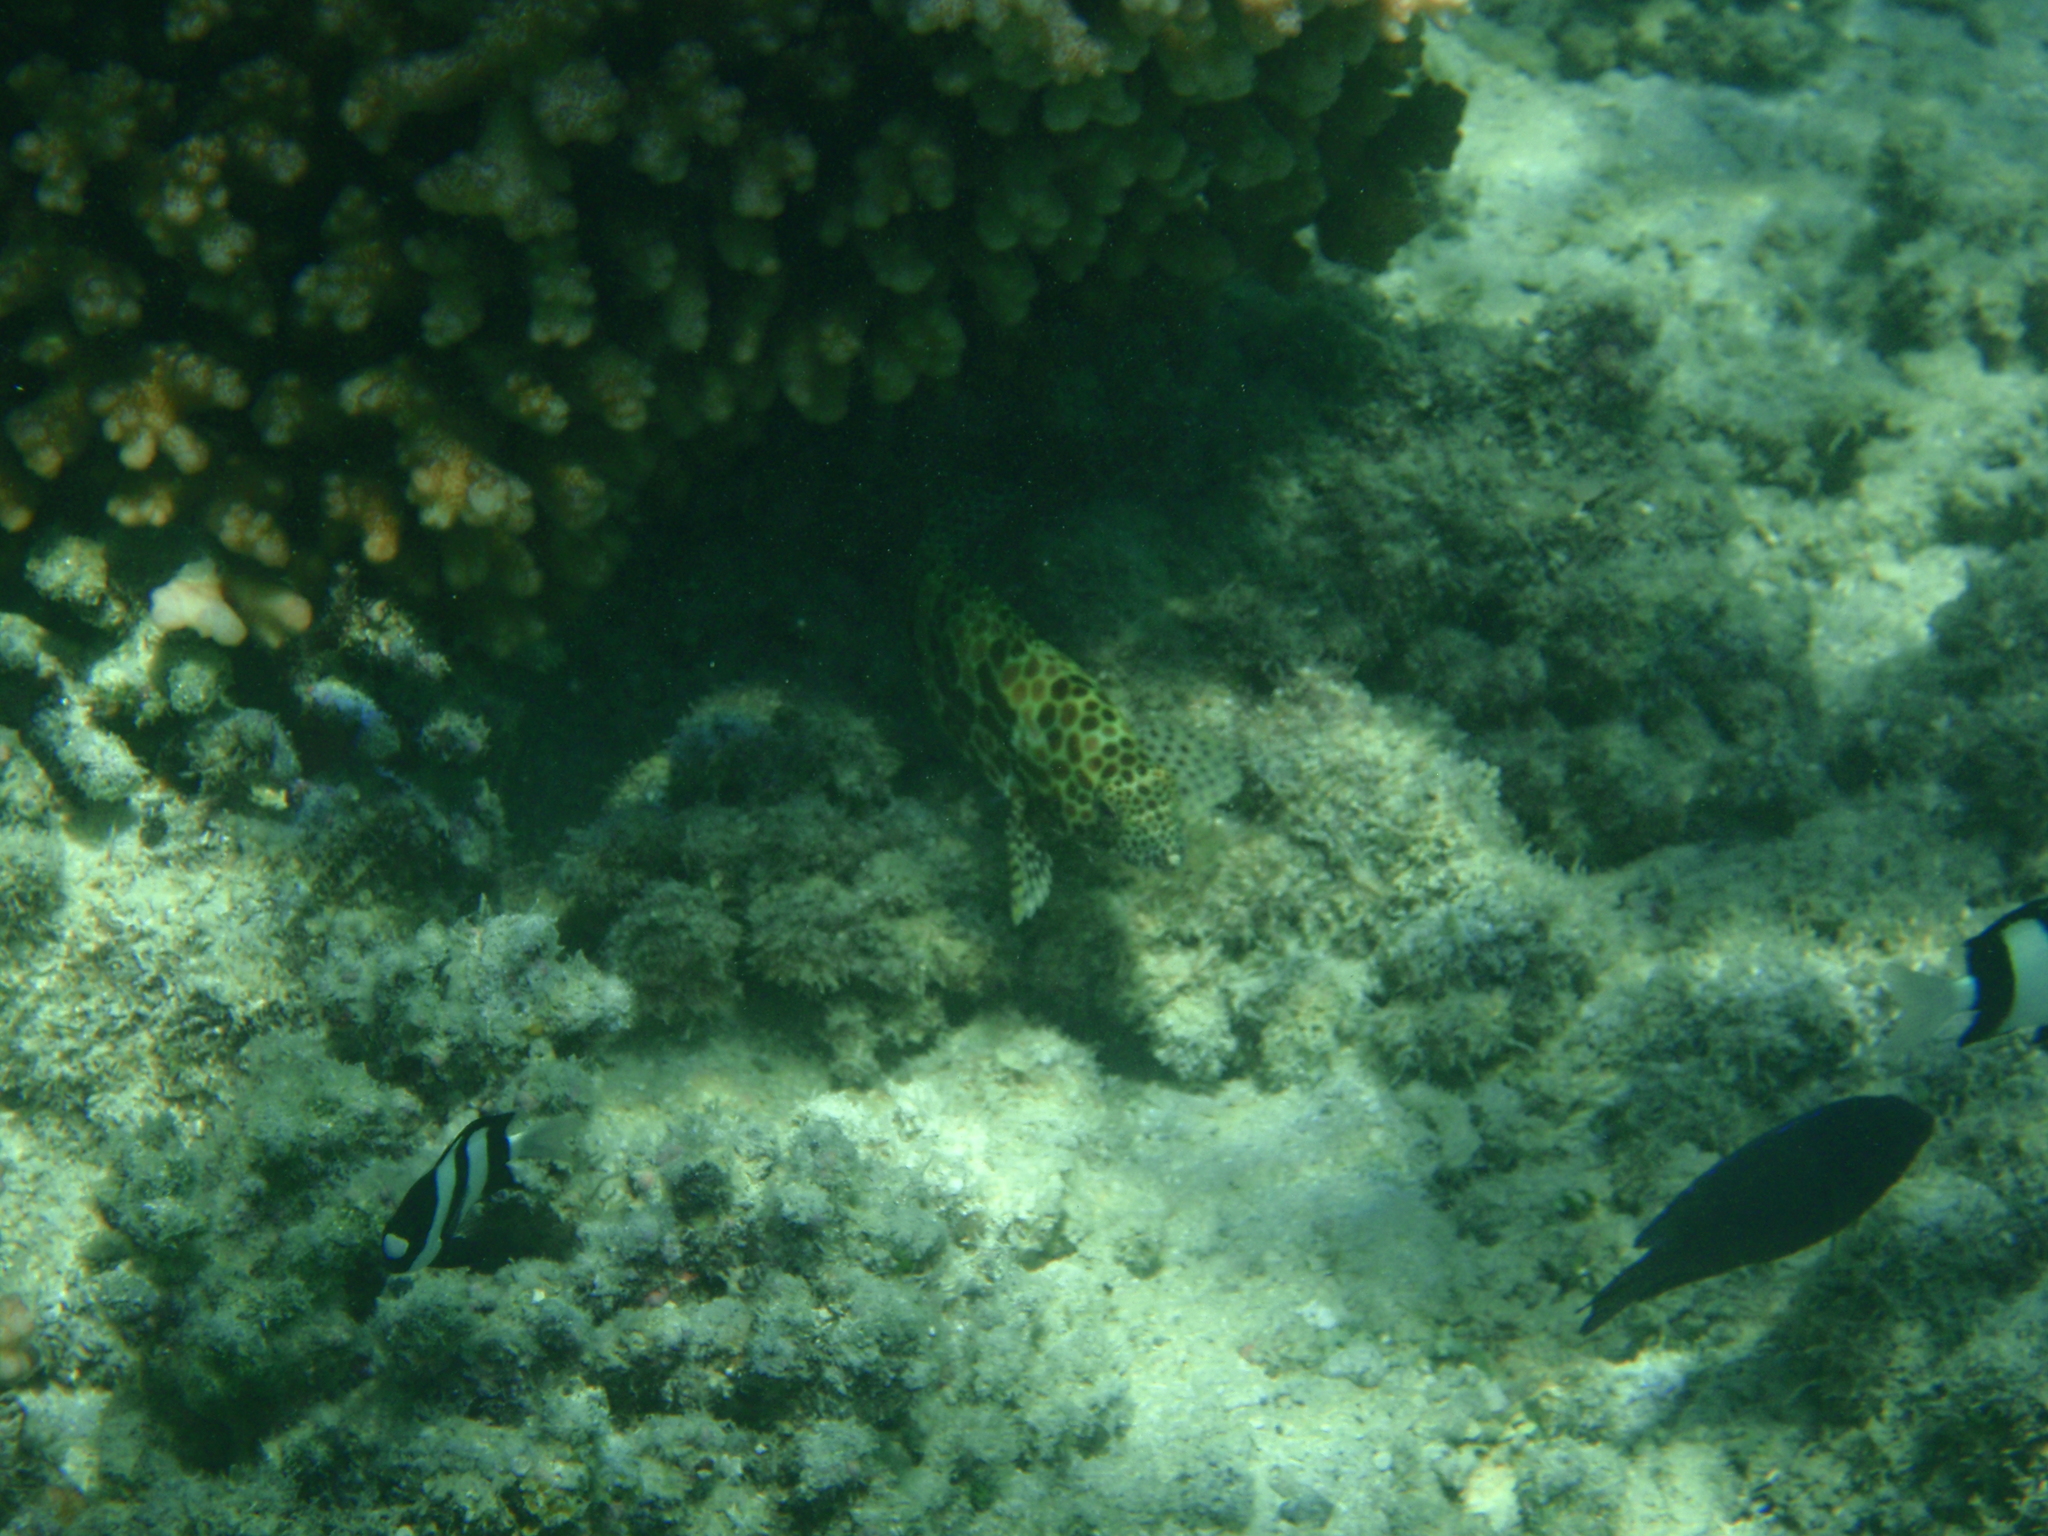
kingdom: Animalia
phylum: Chordata
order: Perciformes
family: Serranidae
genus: Epinephelus
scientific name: Epinephelus merra
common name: Honeycomb grouper
